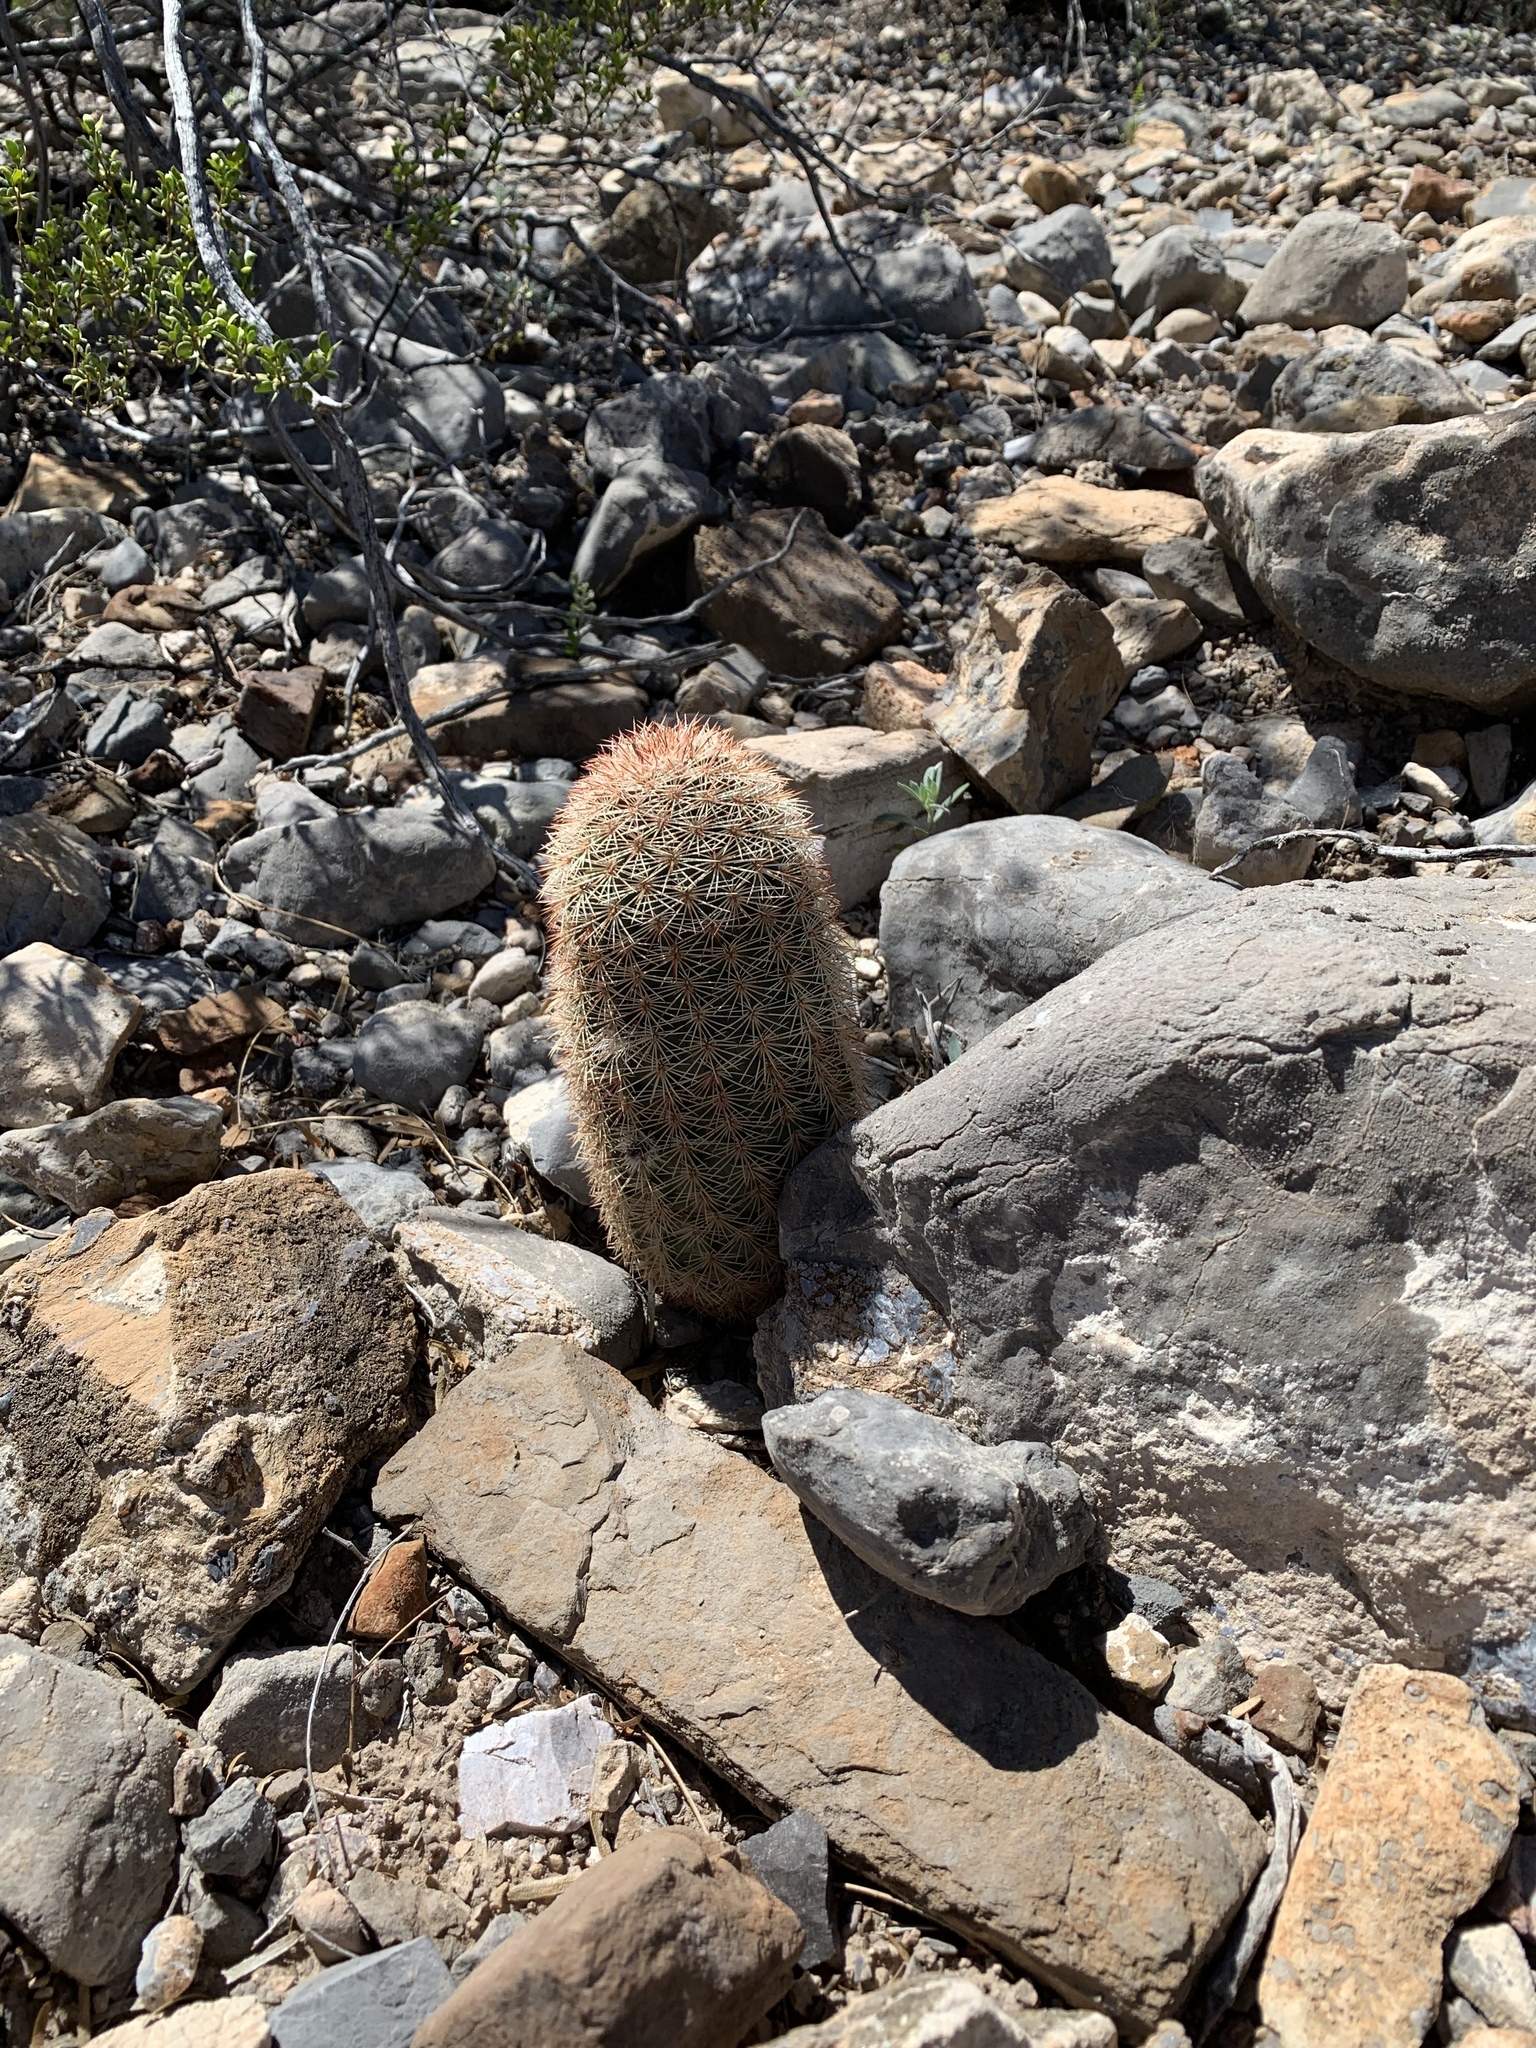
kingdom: Plantae
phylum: Tracheophyta
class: Magnoliopsida
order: Caryophyllales
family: Cactaceae
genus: Echinocereus
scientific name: Echinocereus dasyacanthus
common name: Spiny hedgehog cactus
